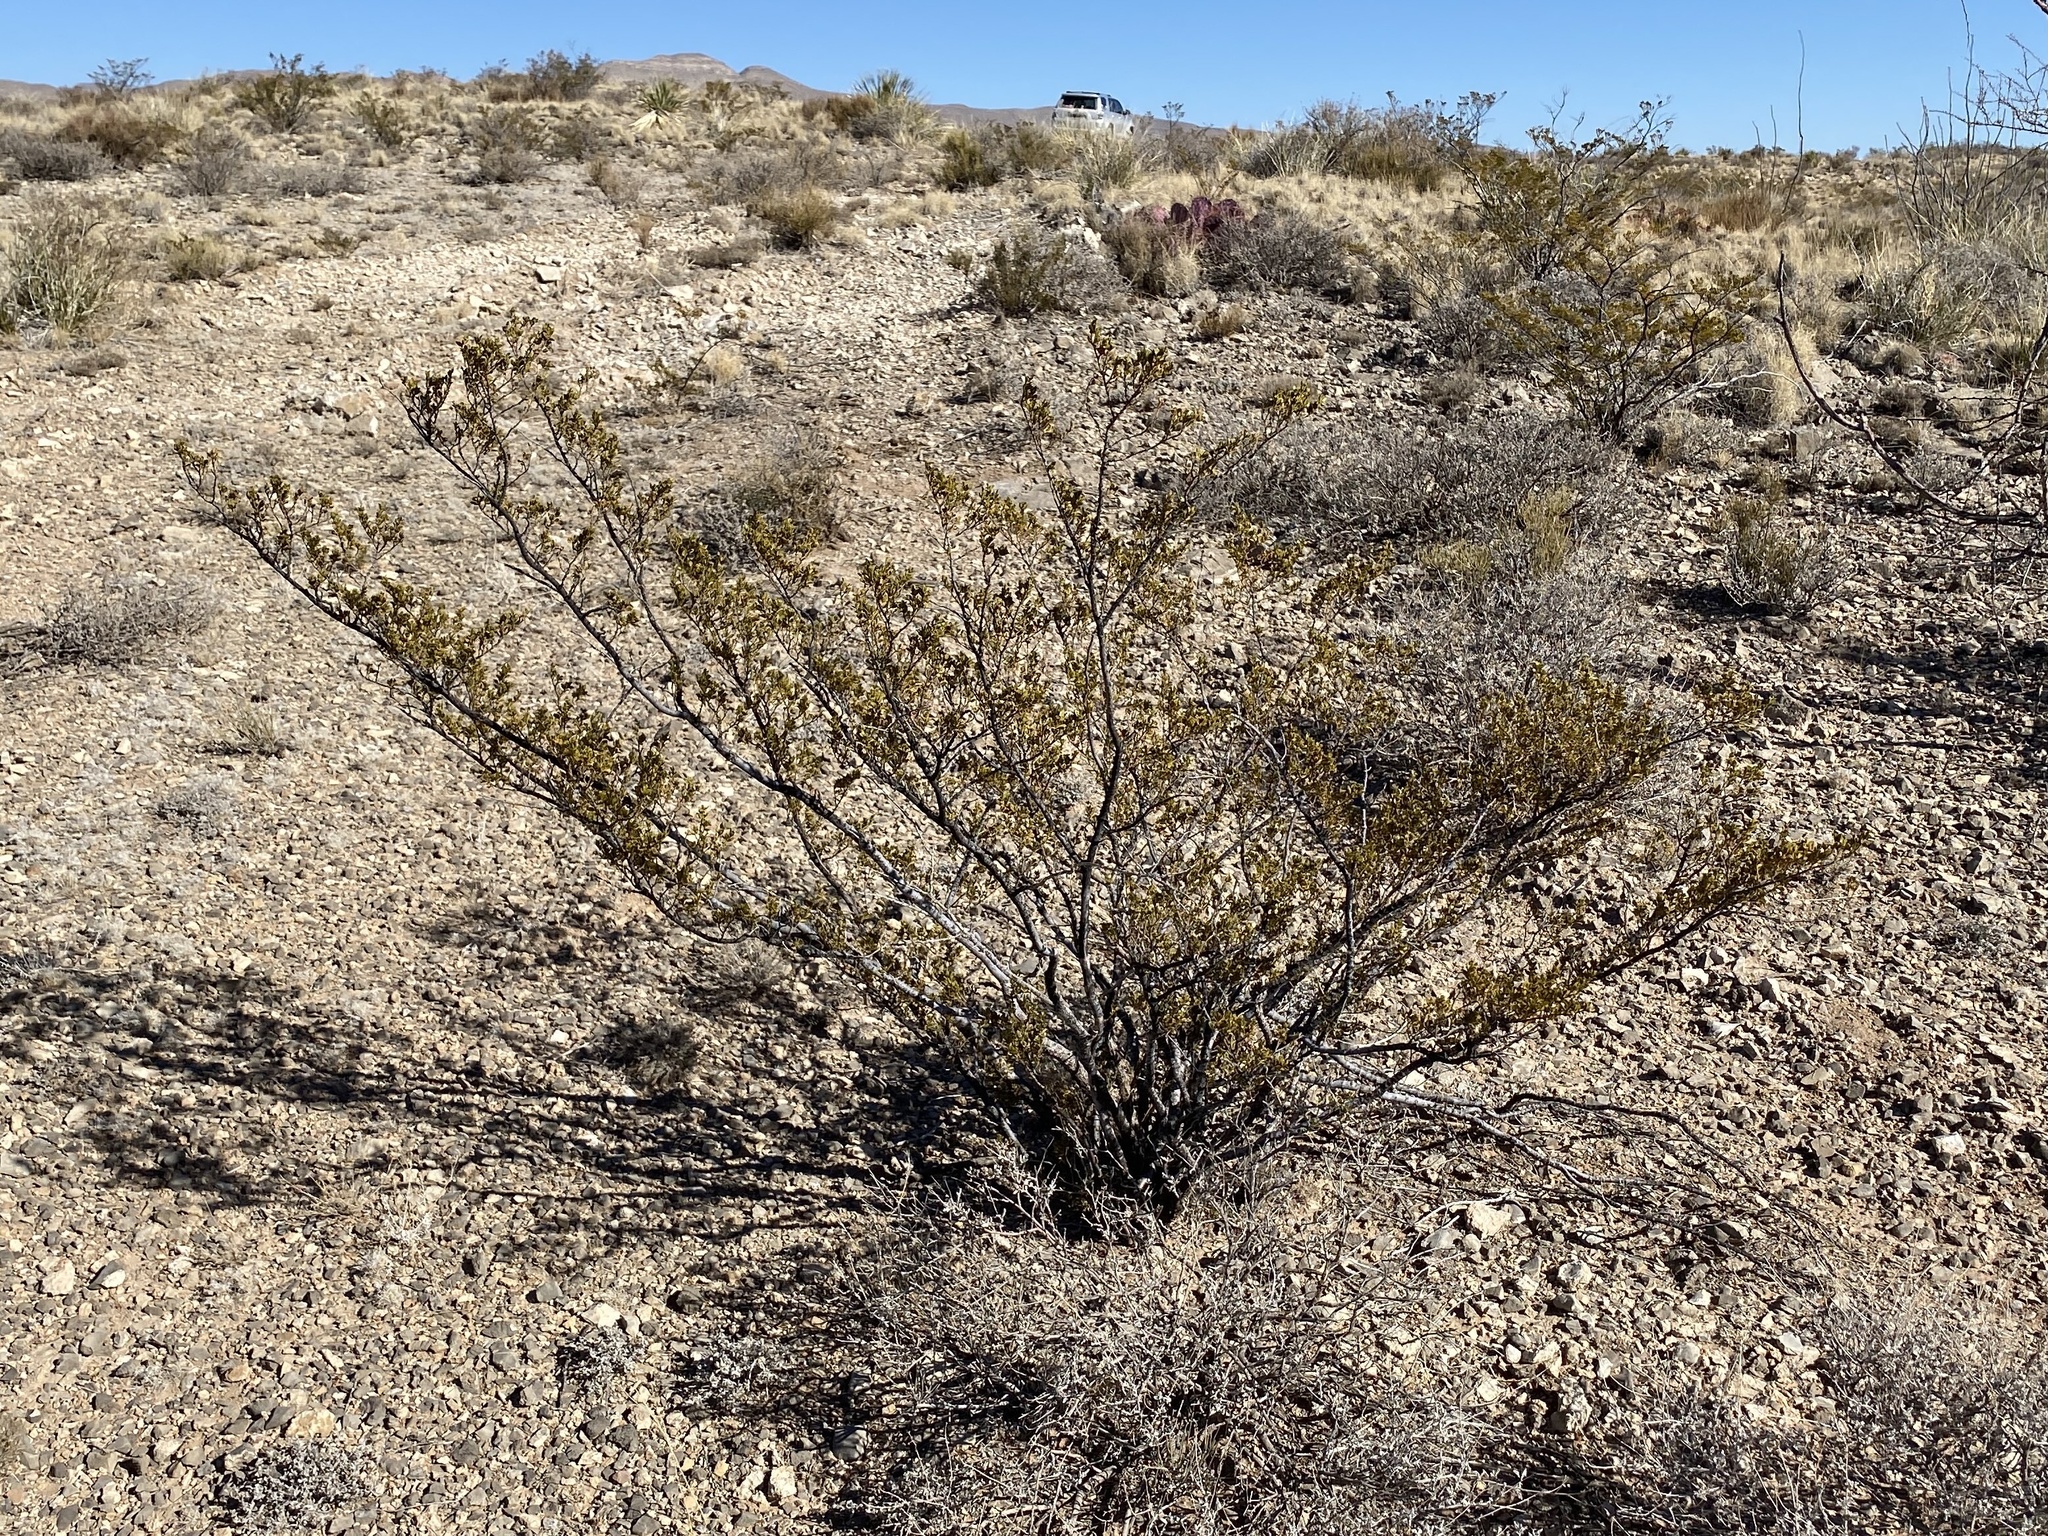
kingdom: Plantae
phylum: Tracheophyta
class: Magnoliopsida
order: Zygophyllales
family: Zygophyllaceae
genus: Larrea
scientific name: Larrea tridentata
